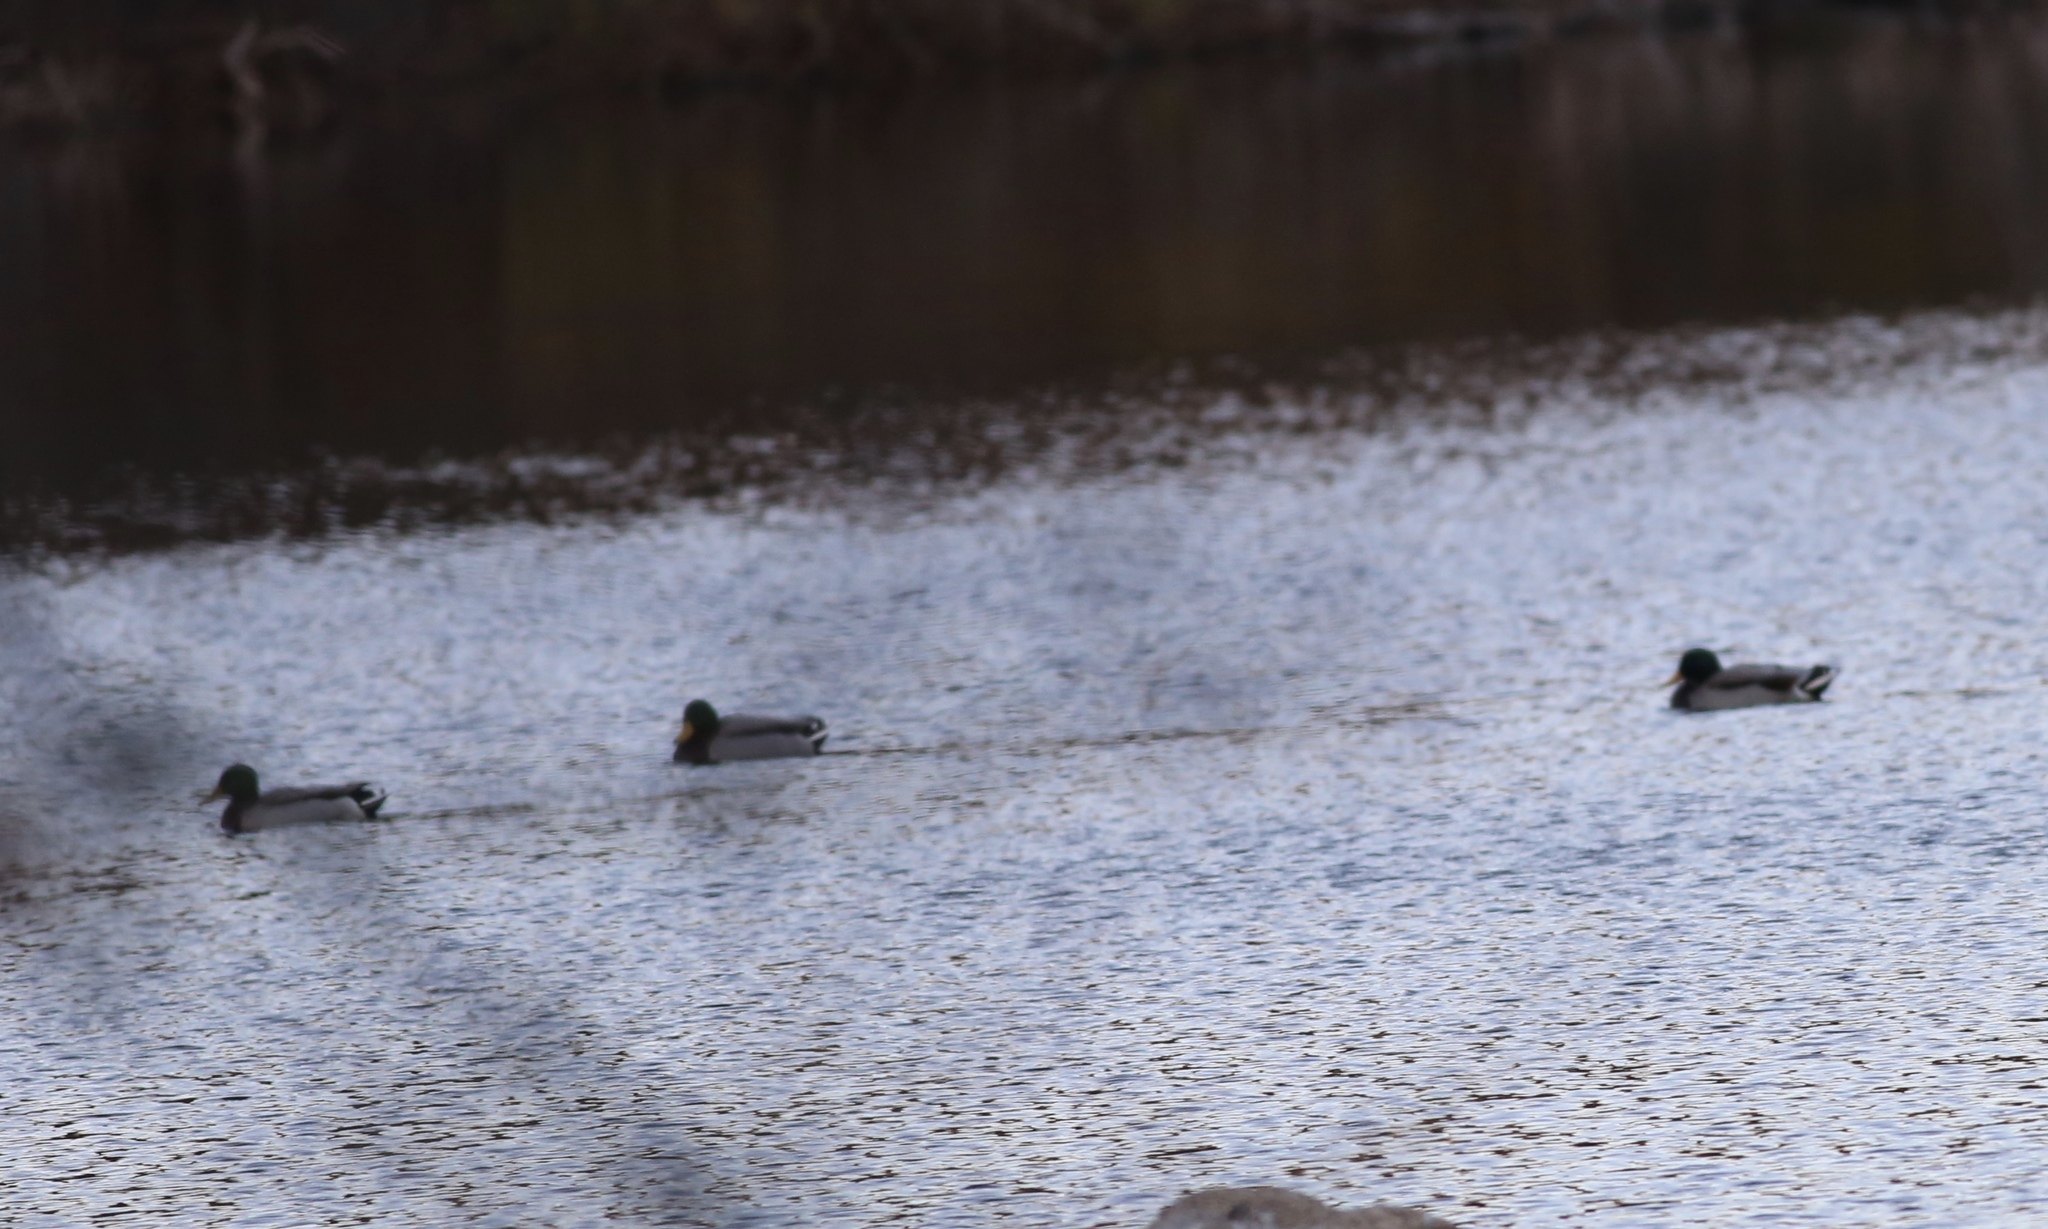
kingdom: Animalia
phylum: Chordata
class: Aves
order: Anseriformes
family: Anatidae
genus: Anas
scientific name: Anas platyrhynchos
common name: Mallard
